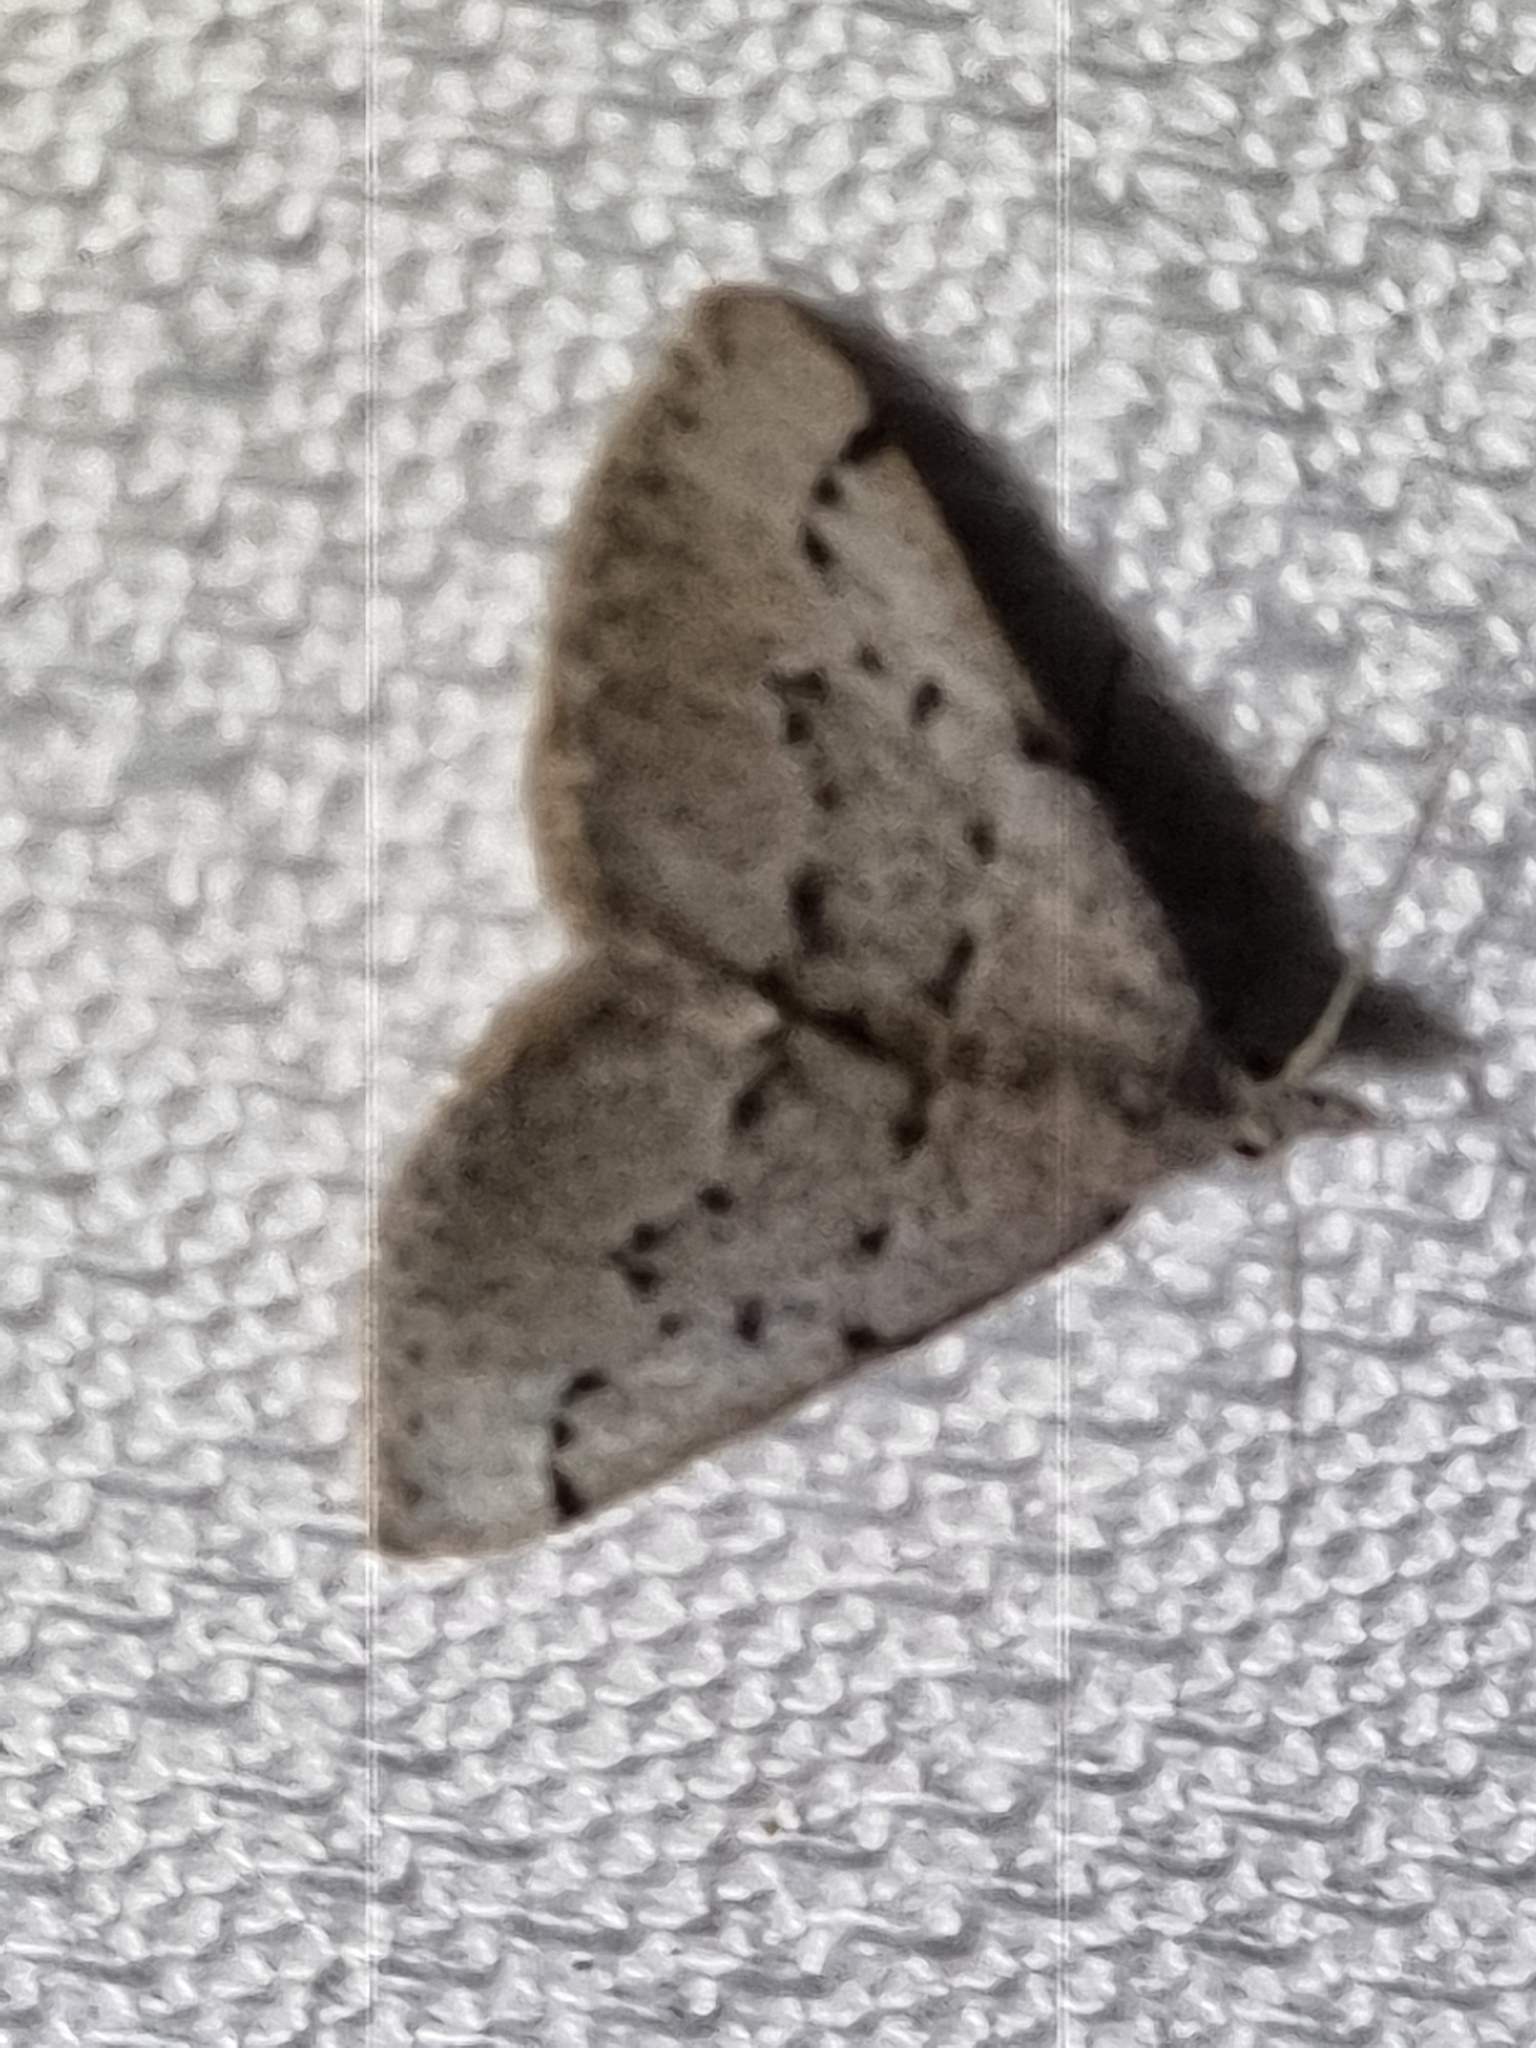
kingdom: Animalia
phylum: Arthropoda
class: Insecta
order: Lepidoptera
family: Geometridae
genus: Dichromodes
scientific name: Dichromodes usurpatrix
